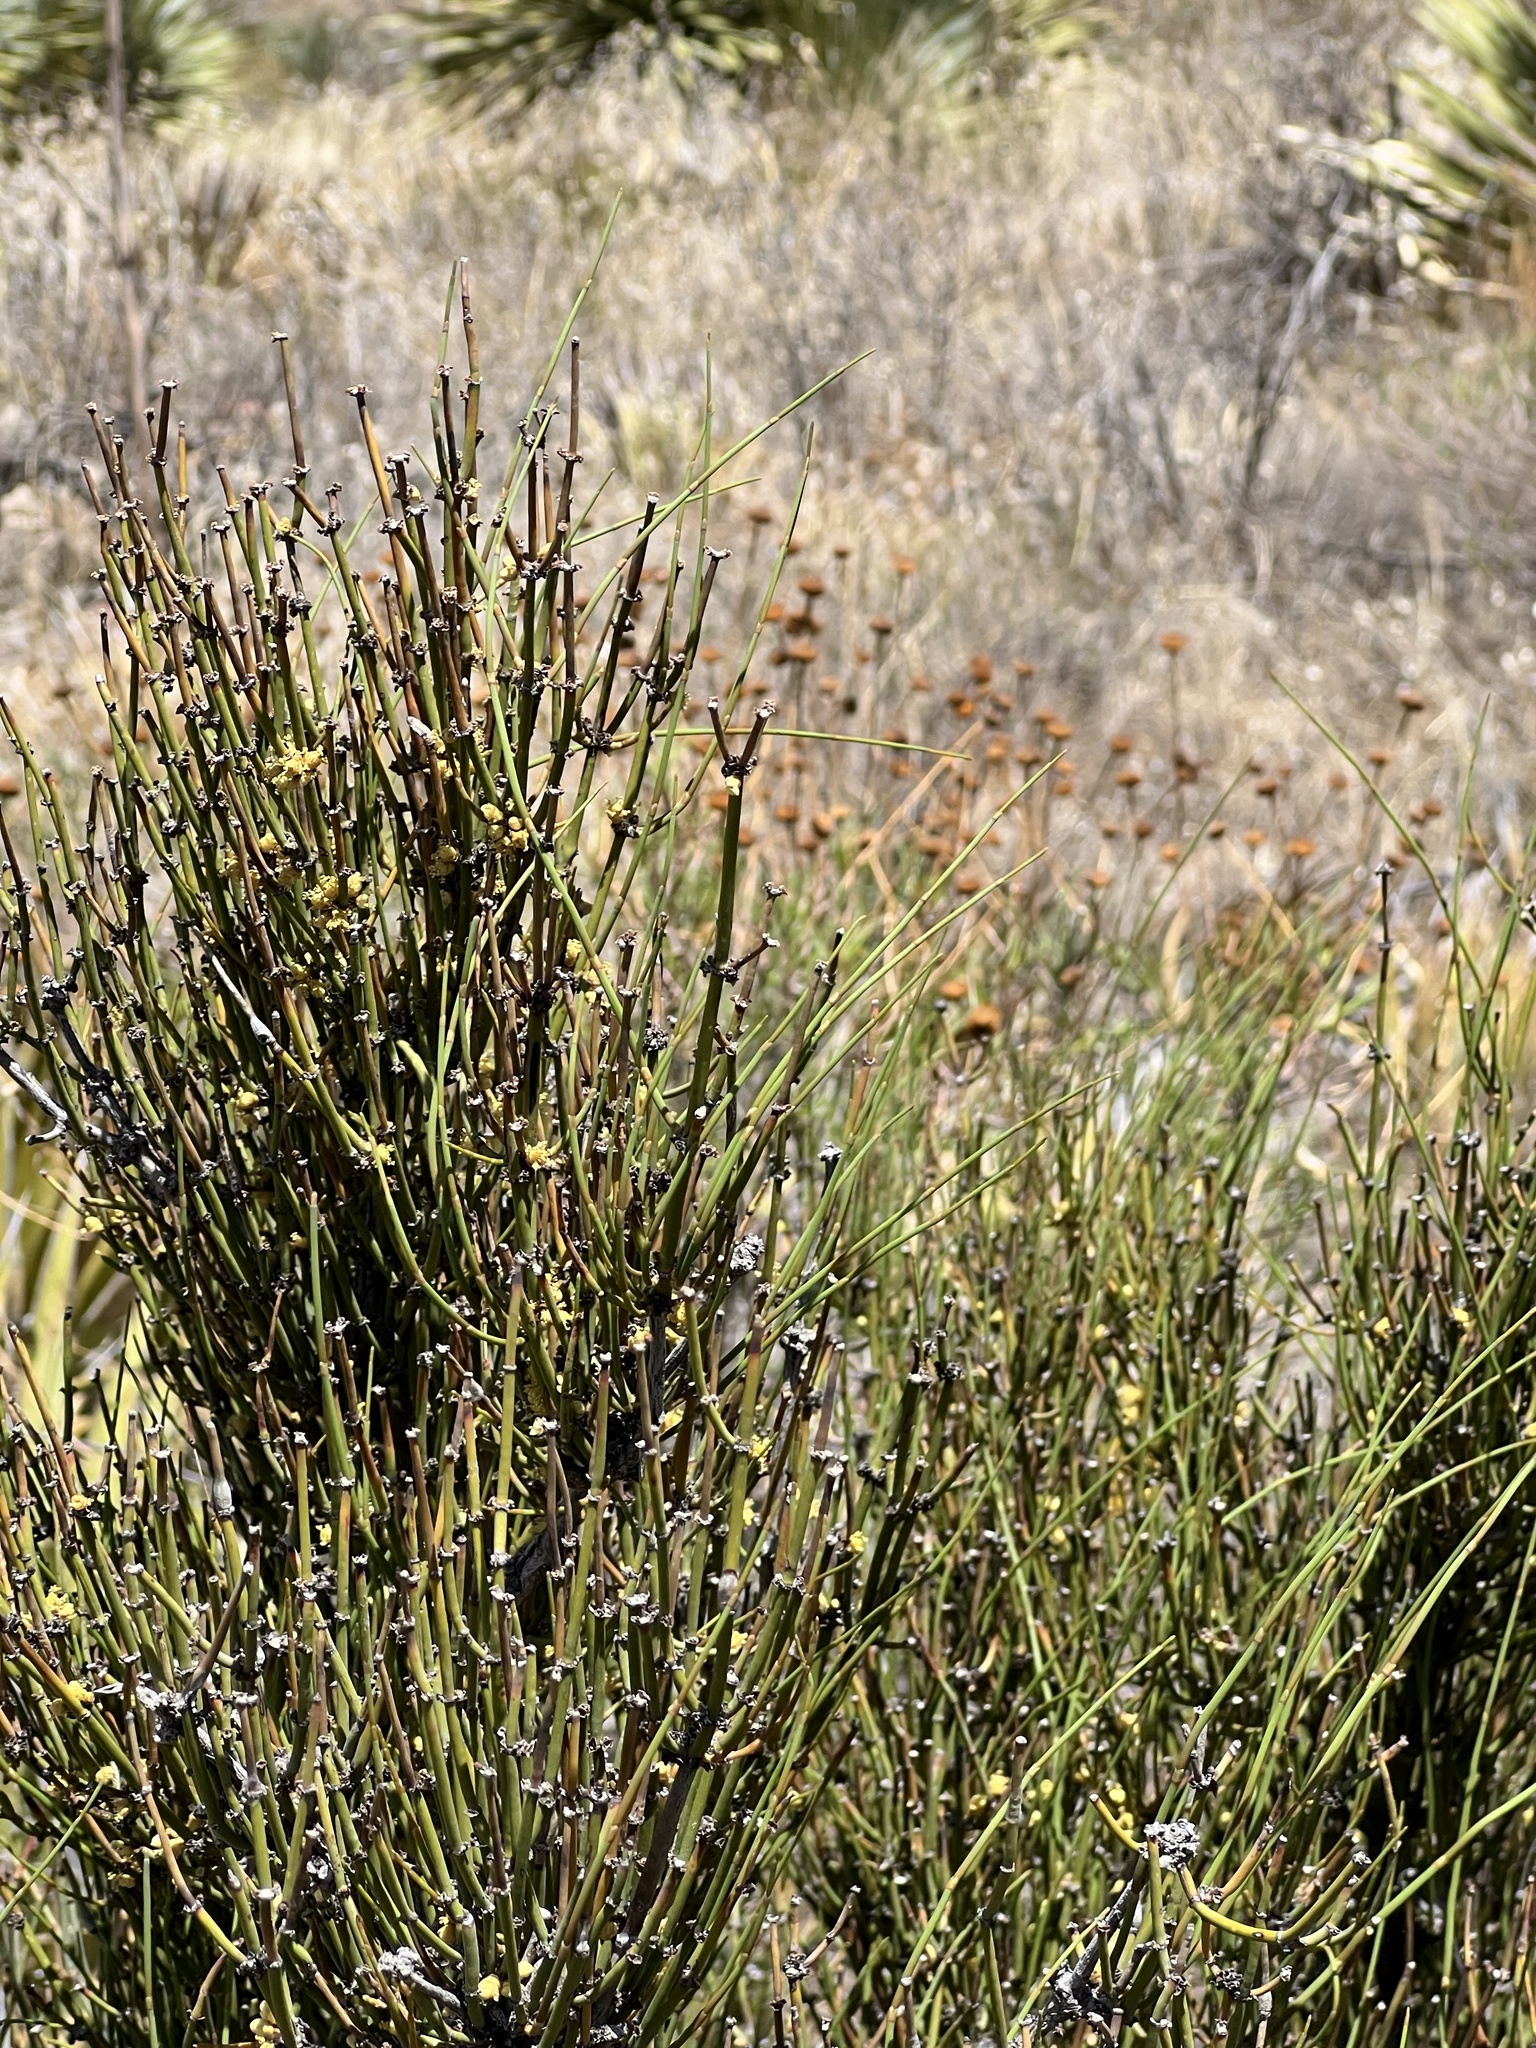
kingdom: Plantae
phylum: Tracheophyta
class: Gnetopsida
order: Ephedrales
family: Ephedraceae
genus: Ephedra
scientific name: Ephedra aspera
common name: Boundary ephedra
